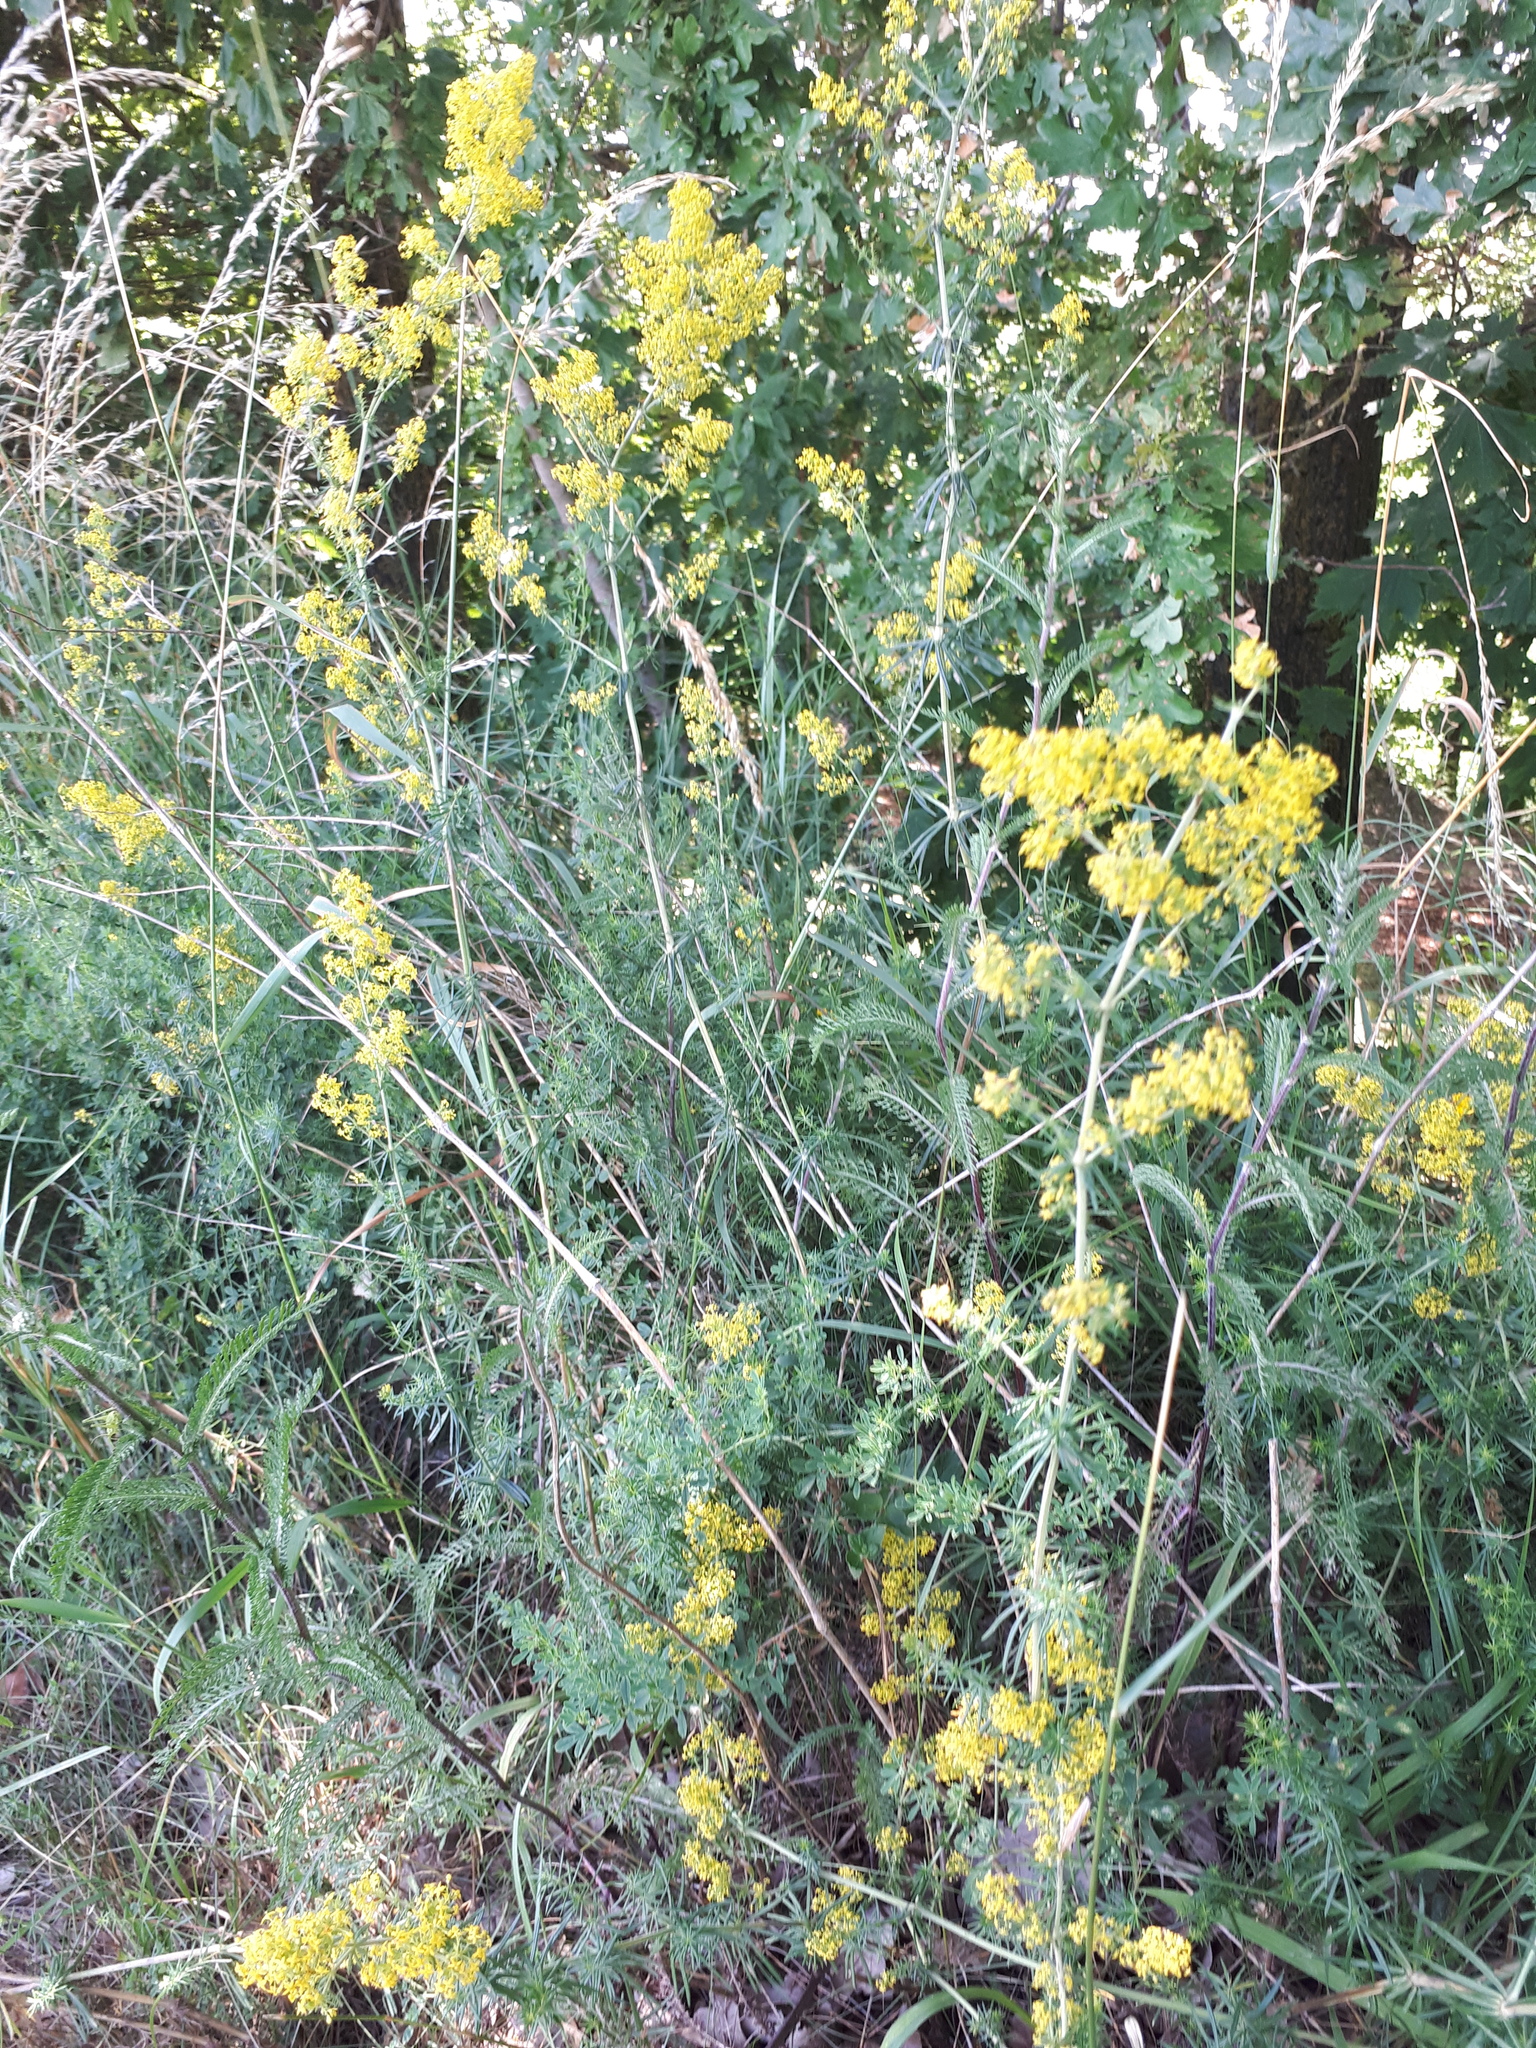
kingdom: Plantae
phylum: Tracheophyta
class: Magnoliopsida
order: Gentianales
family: Rubiaceae
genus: Galium
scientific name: Galium verum
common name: Lady's bedstraw
